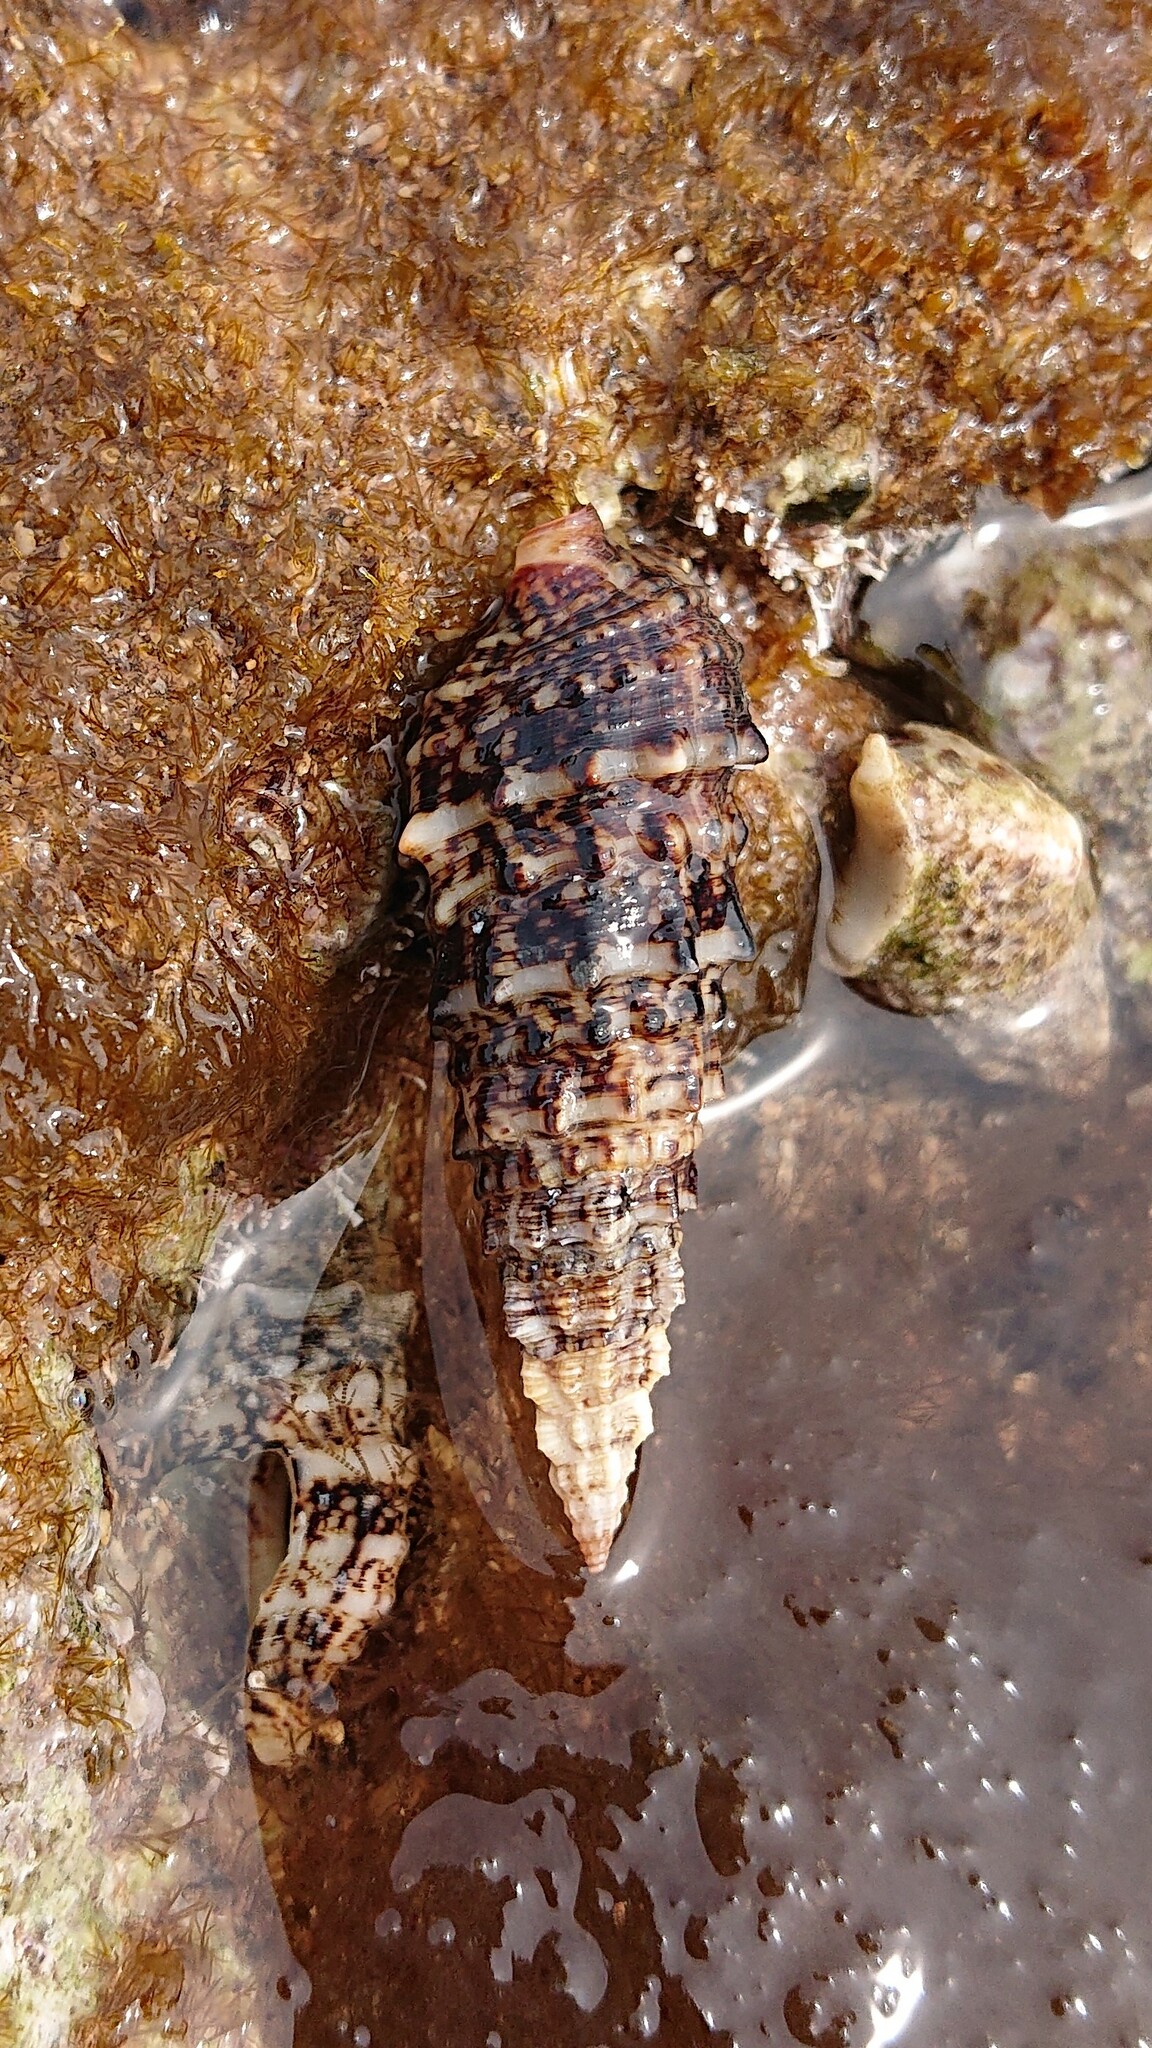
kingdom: Animalia
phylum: Mollusca
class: Gastropoda
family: Cerithiidae
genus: Cerithium
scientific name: Cerithium vulgatum
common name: European cerith
